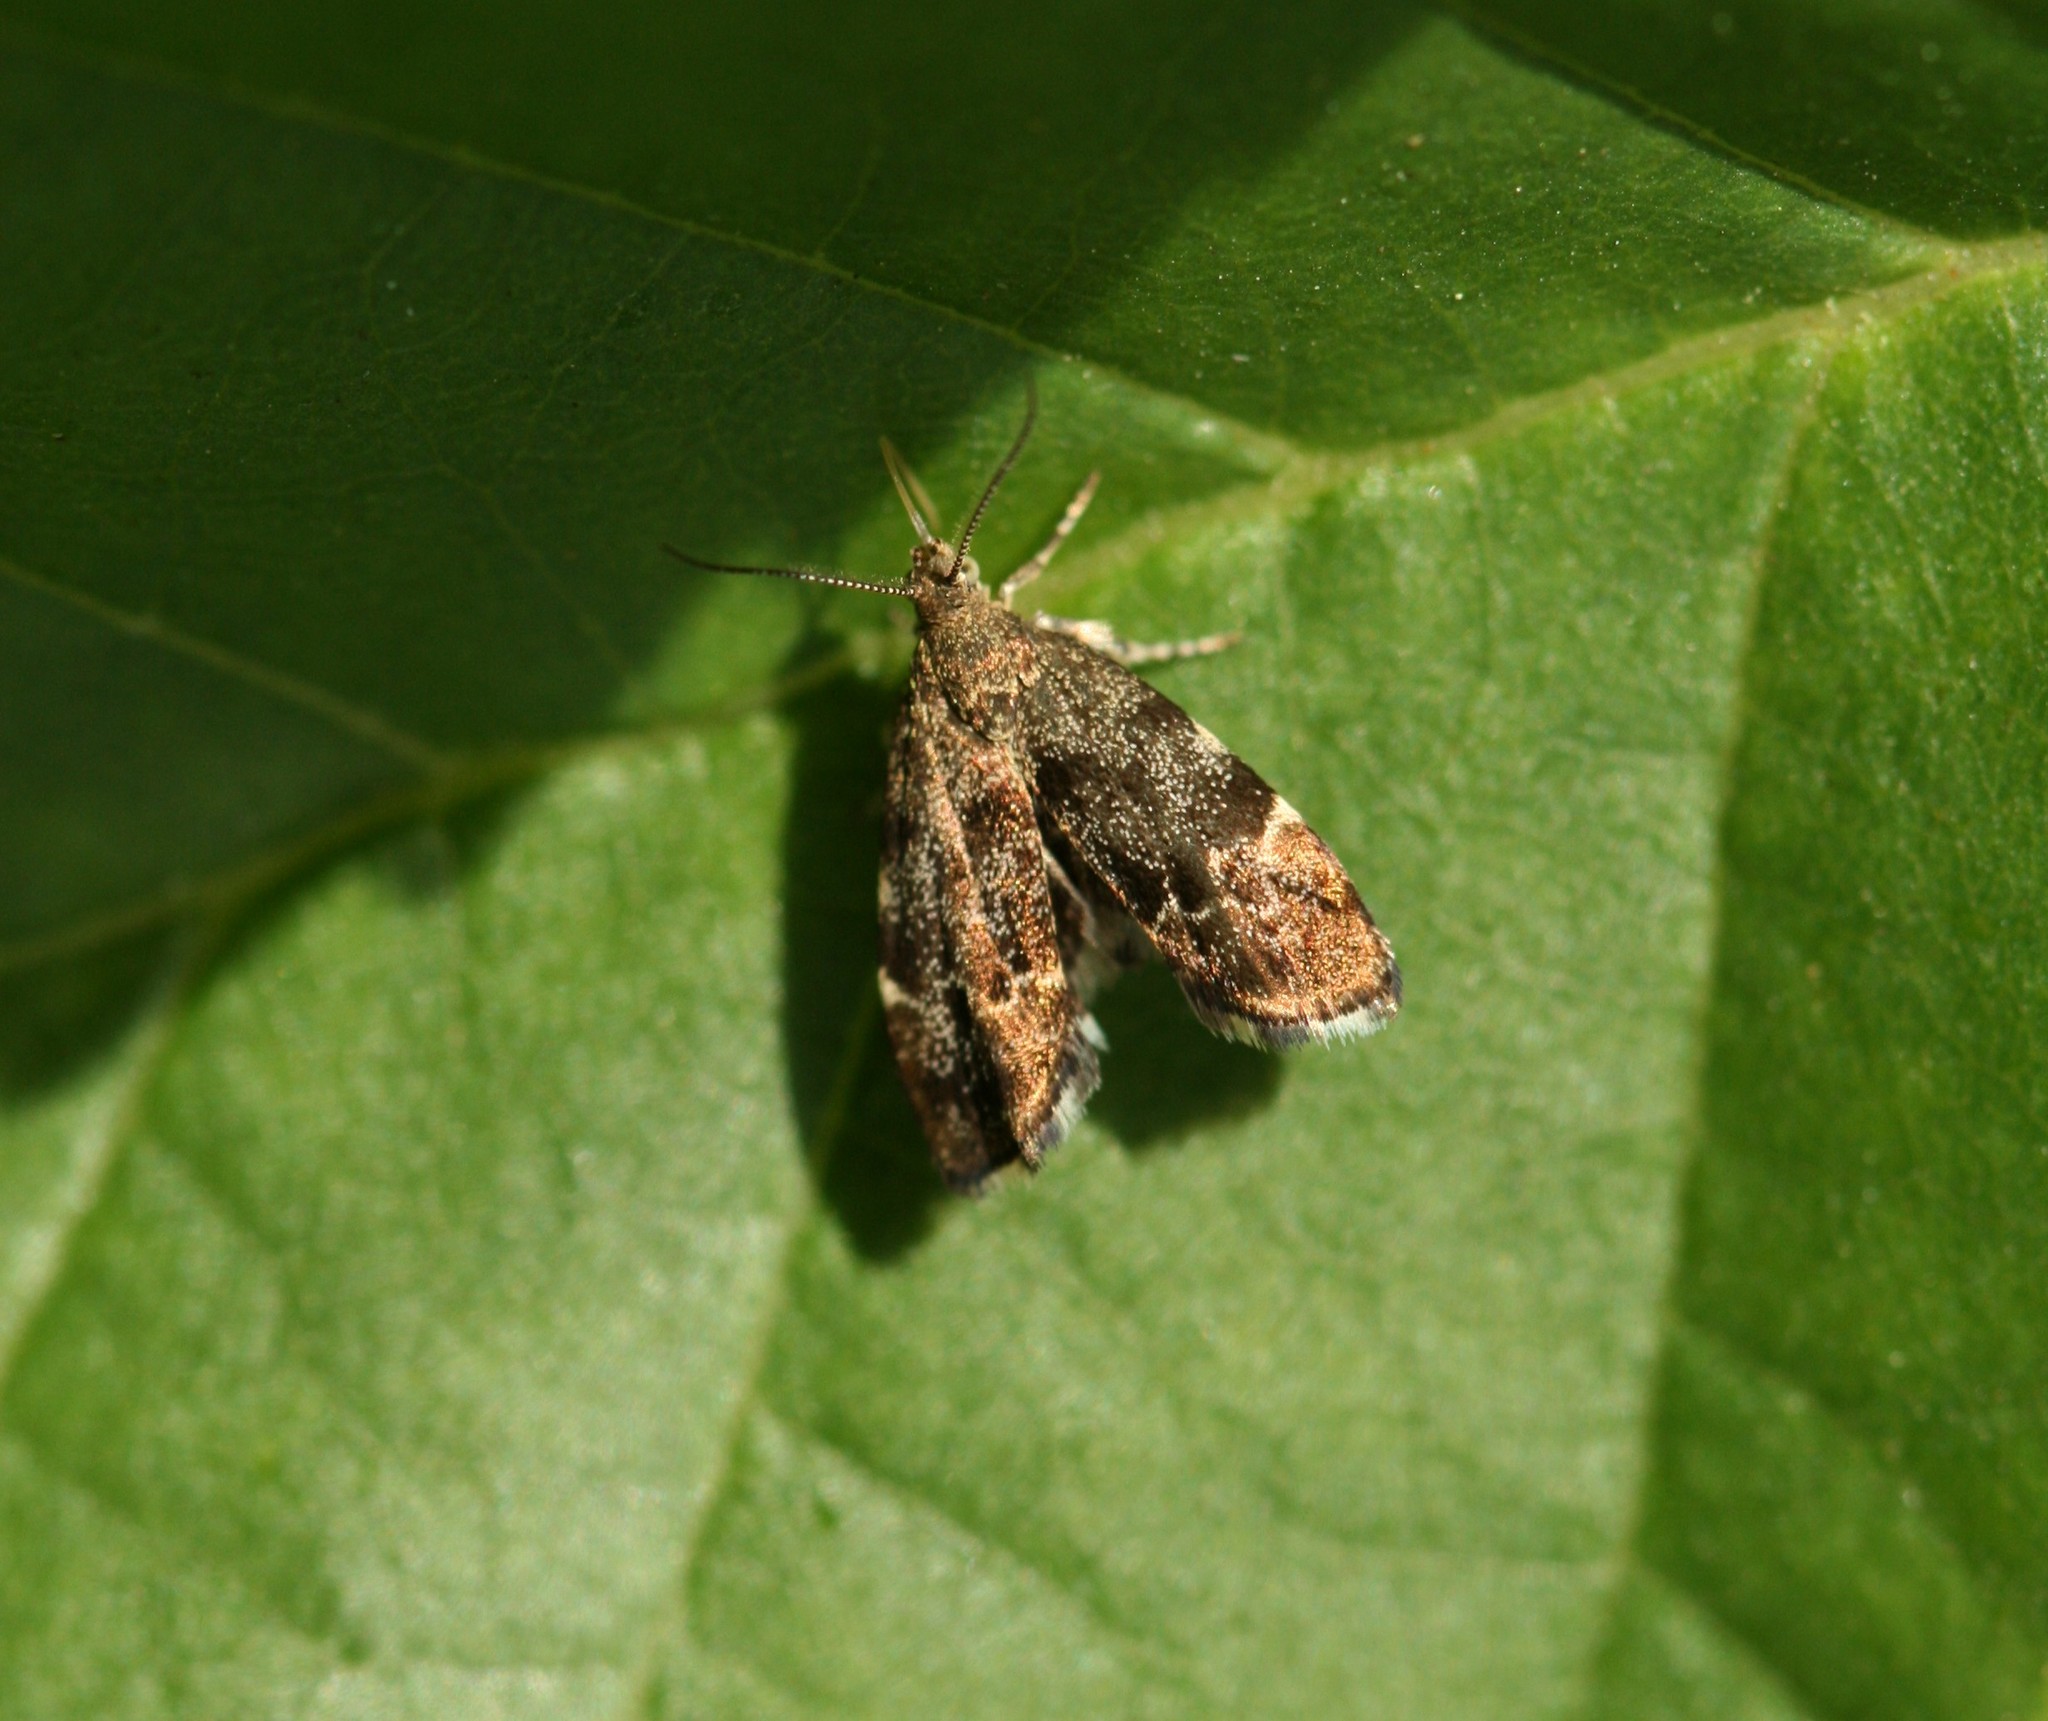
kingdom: Animalia
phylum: Arthropoda
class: Insecta
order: Lepidoptera
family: Choreutidae
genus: Anthophila
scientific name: Anthophila fabriciana
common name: Nettle-tap
